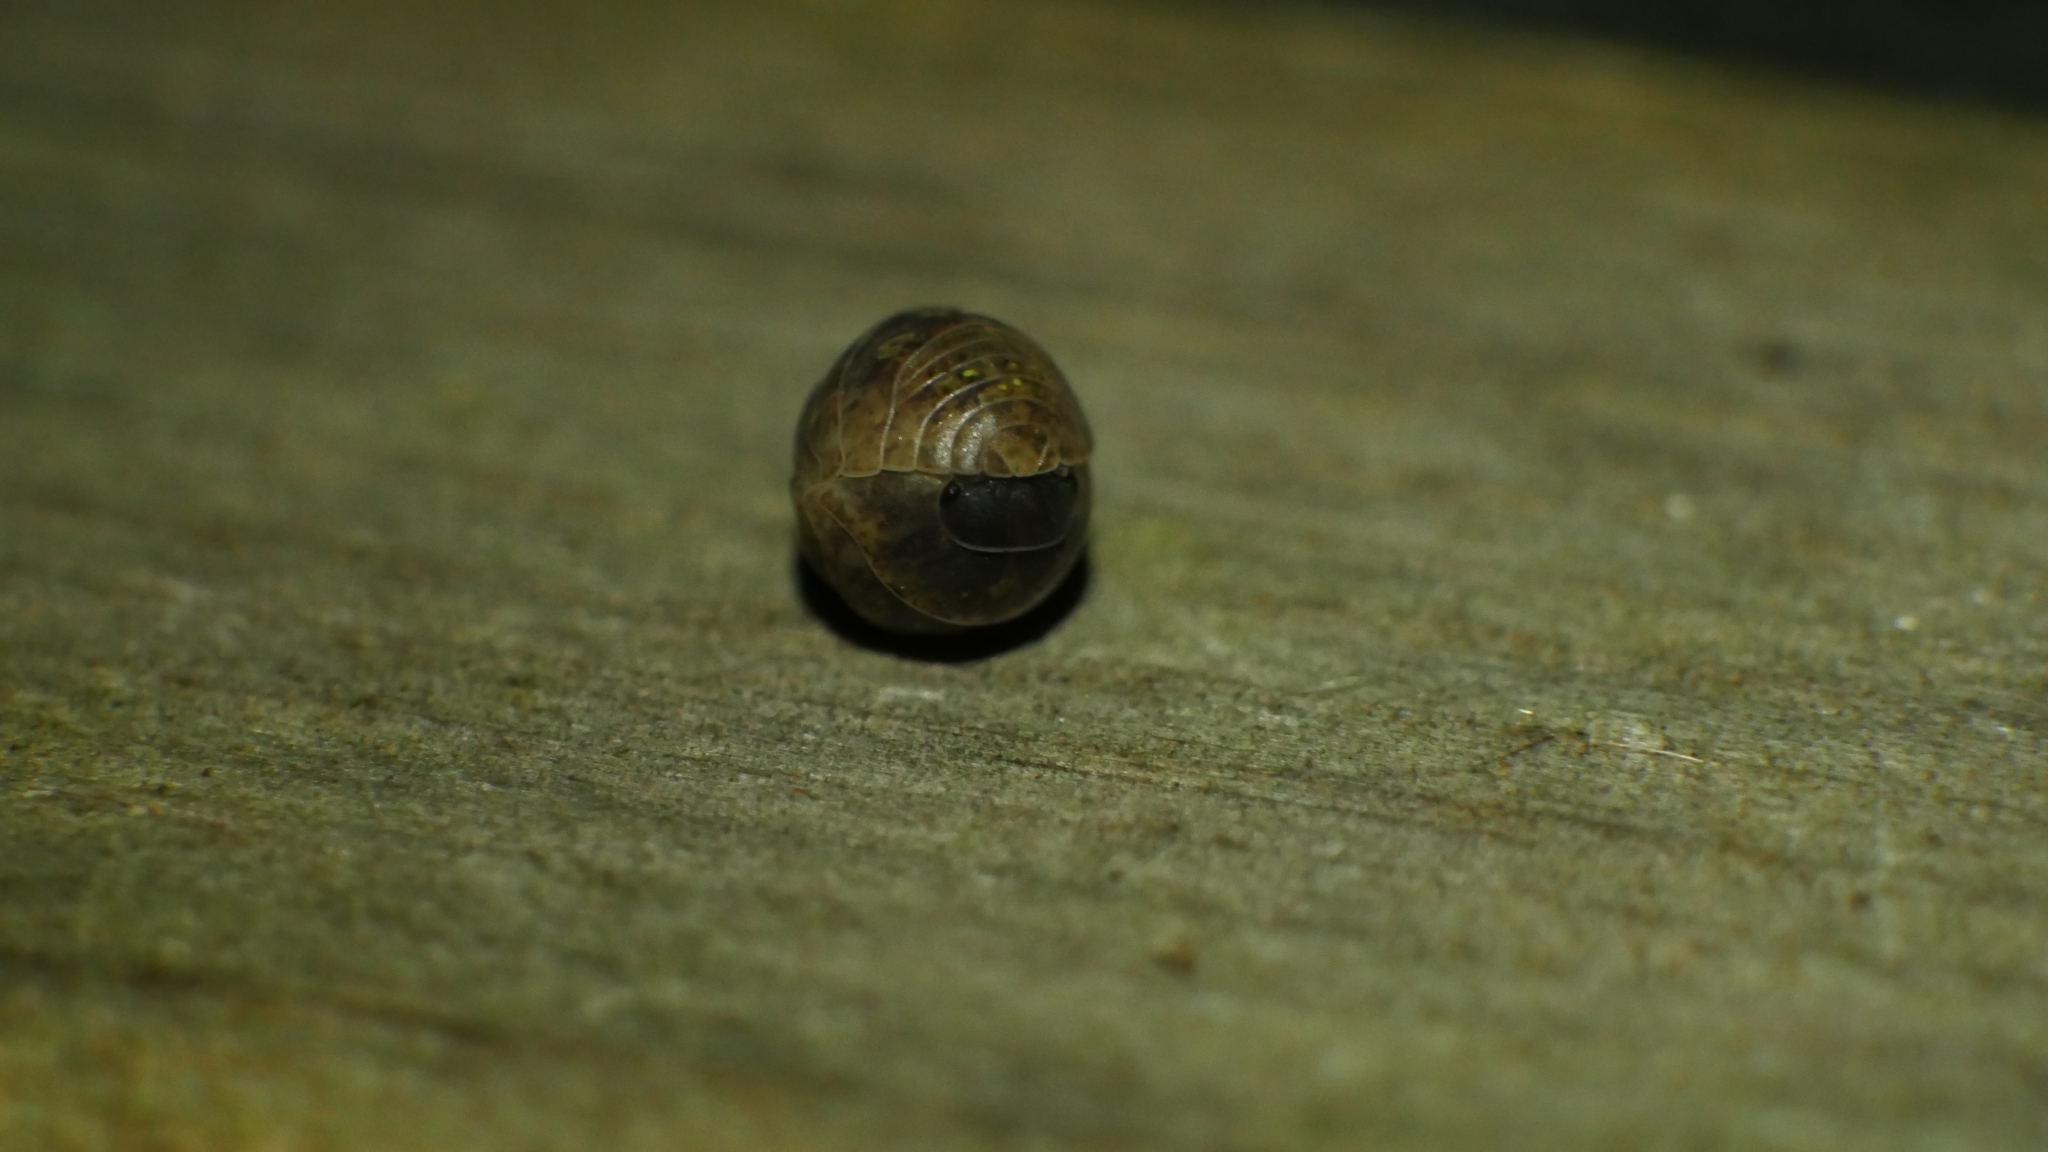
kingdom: Animalia
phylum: Arthropoda
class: Malacostraca
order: Isopoda
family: Armadillidiidae
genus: Armadillidium
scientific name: Armadillidium vulgare
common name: Common pill woodlouse
